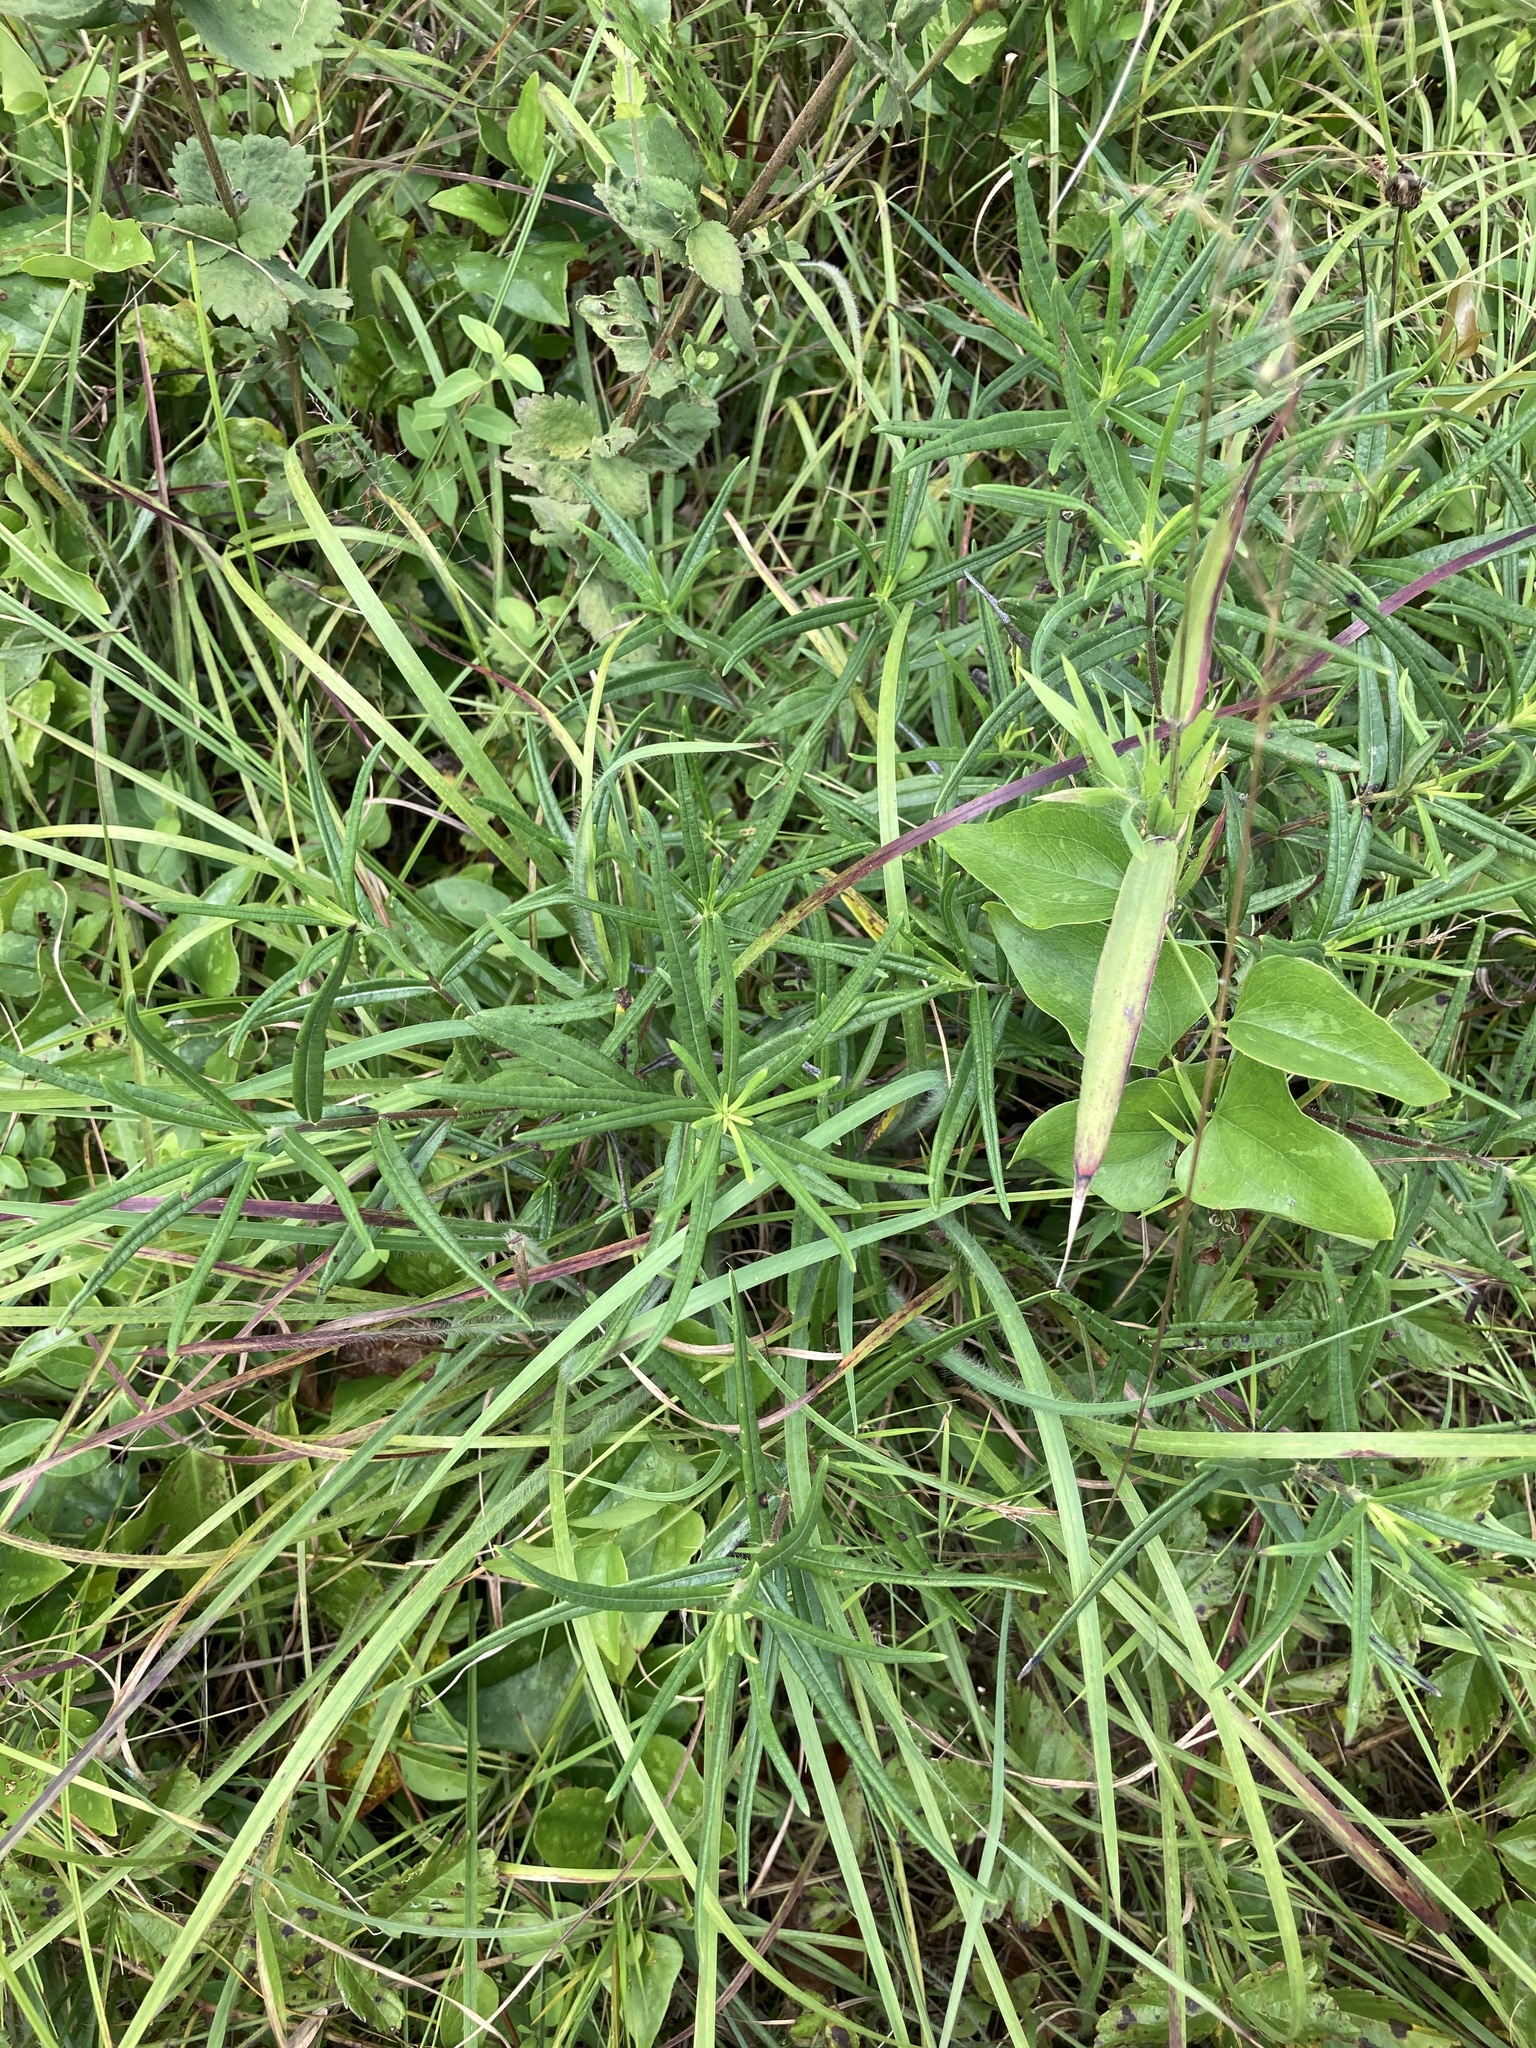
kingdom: Plantae
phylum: Tracheophyta
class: Magnoliopsida
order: Asterales
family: Asteraceae
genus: Helianthus
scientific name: Helianthus angustifolius
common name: Swamp sunflower
